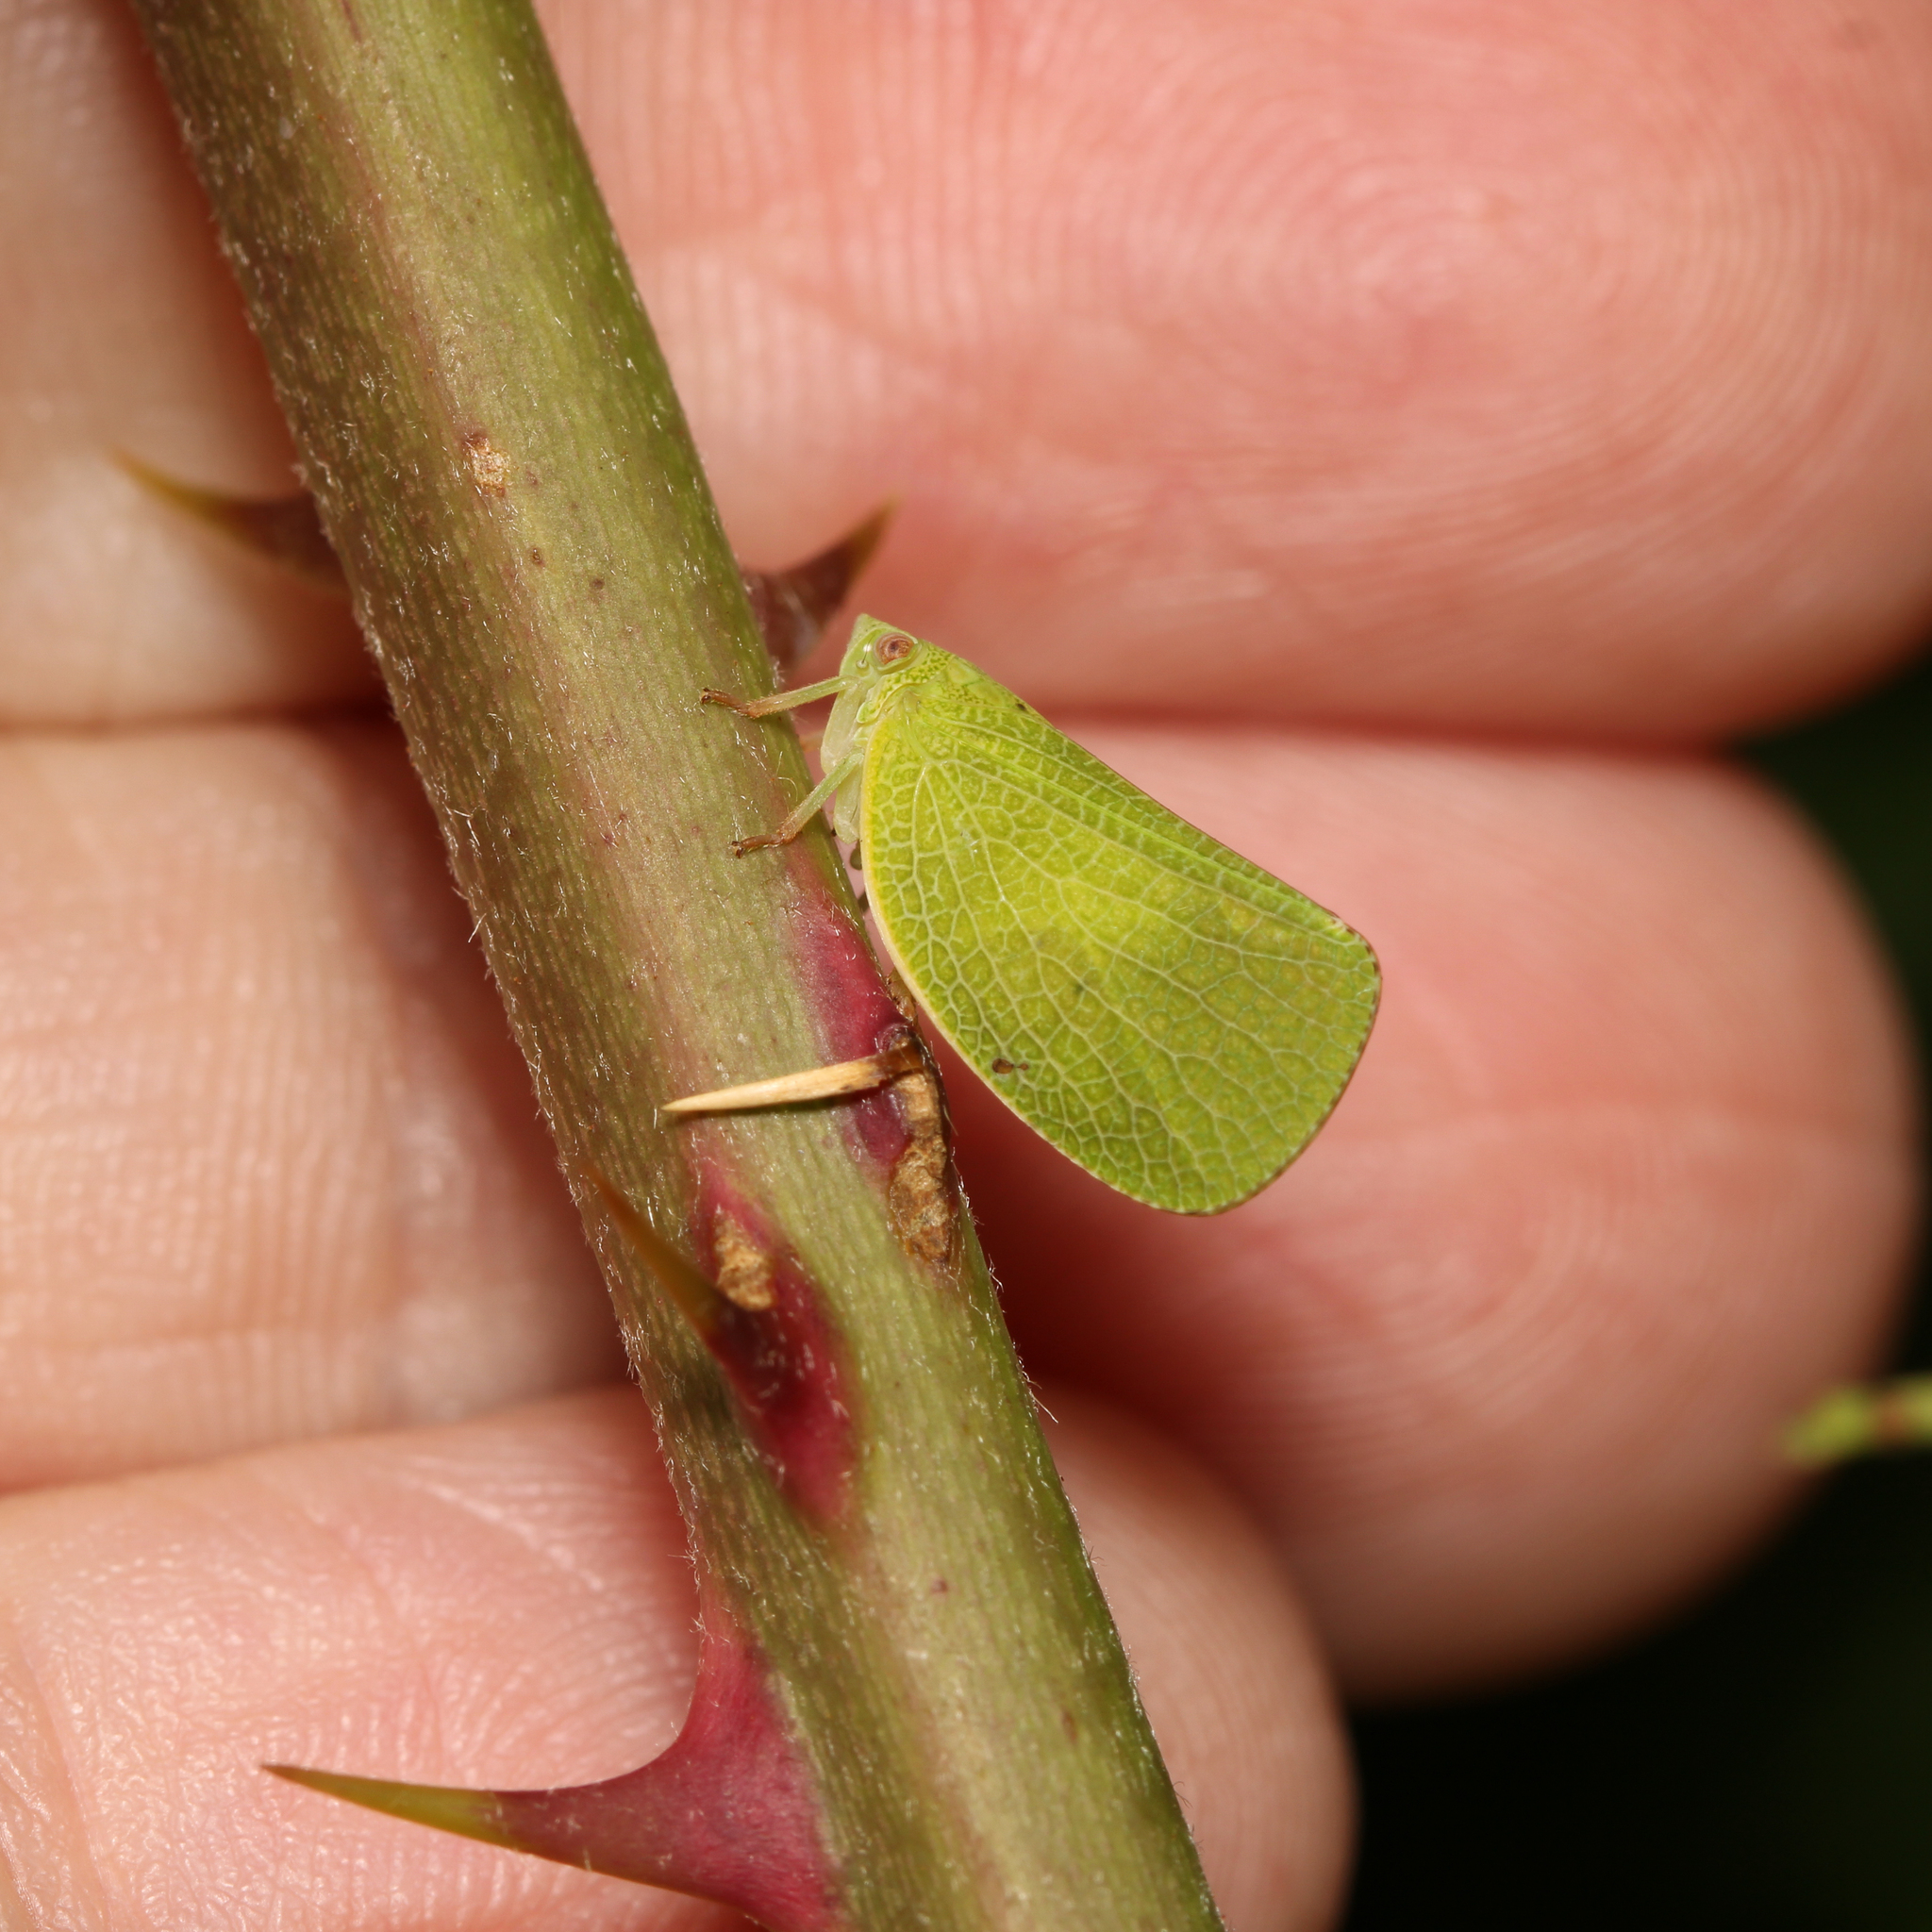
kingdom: Animalia
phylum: Arthropoda
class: Insecta
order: Hemiptera
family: Acanaloniidae
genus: Acanalonia
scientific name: Acanalonia conica
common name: Green cone-headed planthopper
